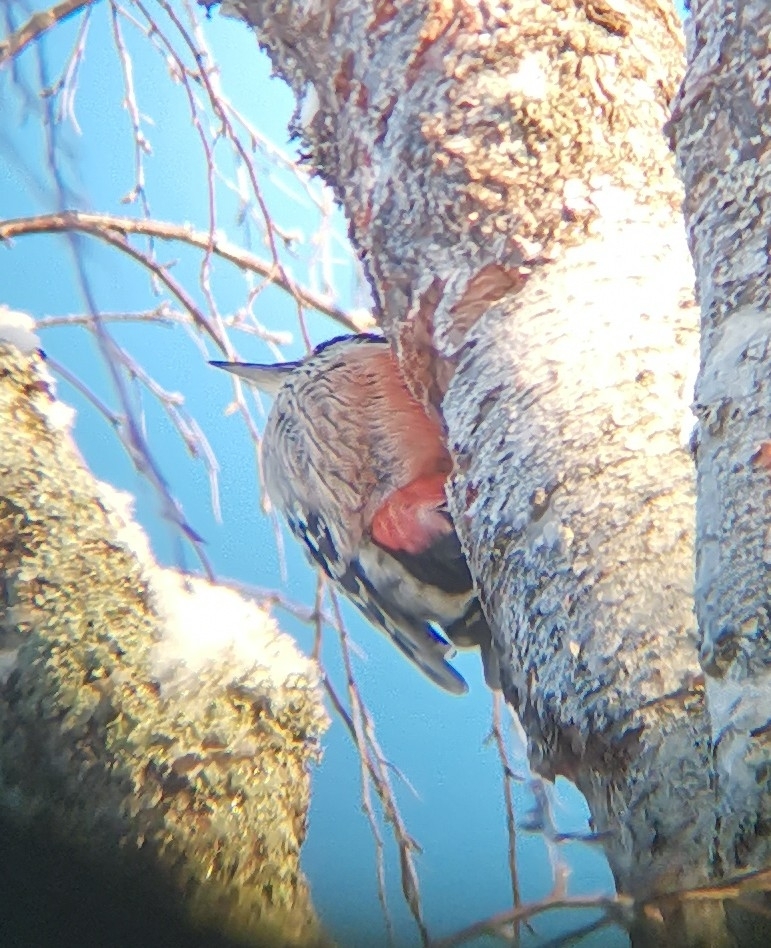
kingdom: Animalia
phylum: Chordata
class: Aves
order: Piciformes
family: Picidae
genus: Dendrocopos
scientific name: Dendrocopos leucotos
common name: White-backed woodpecker
